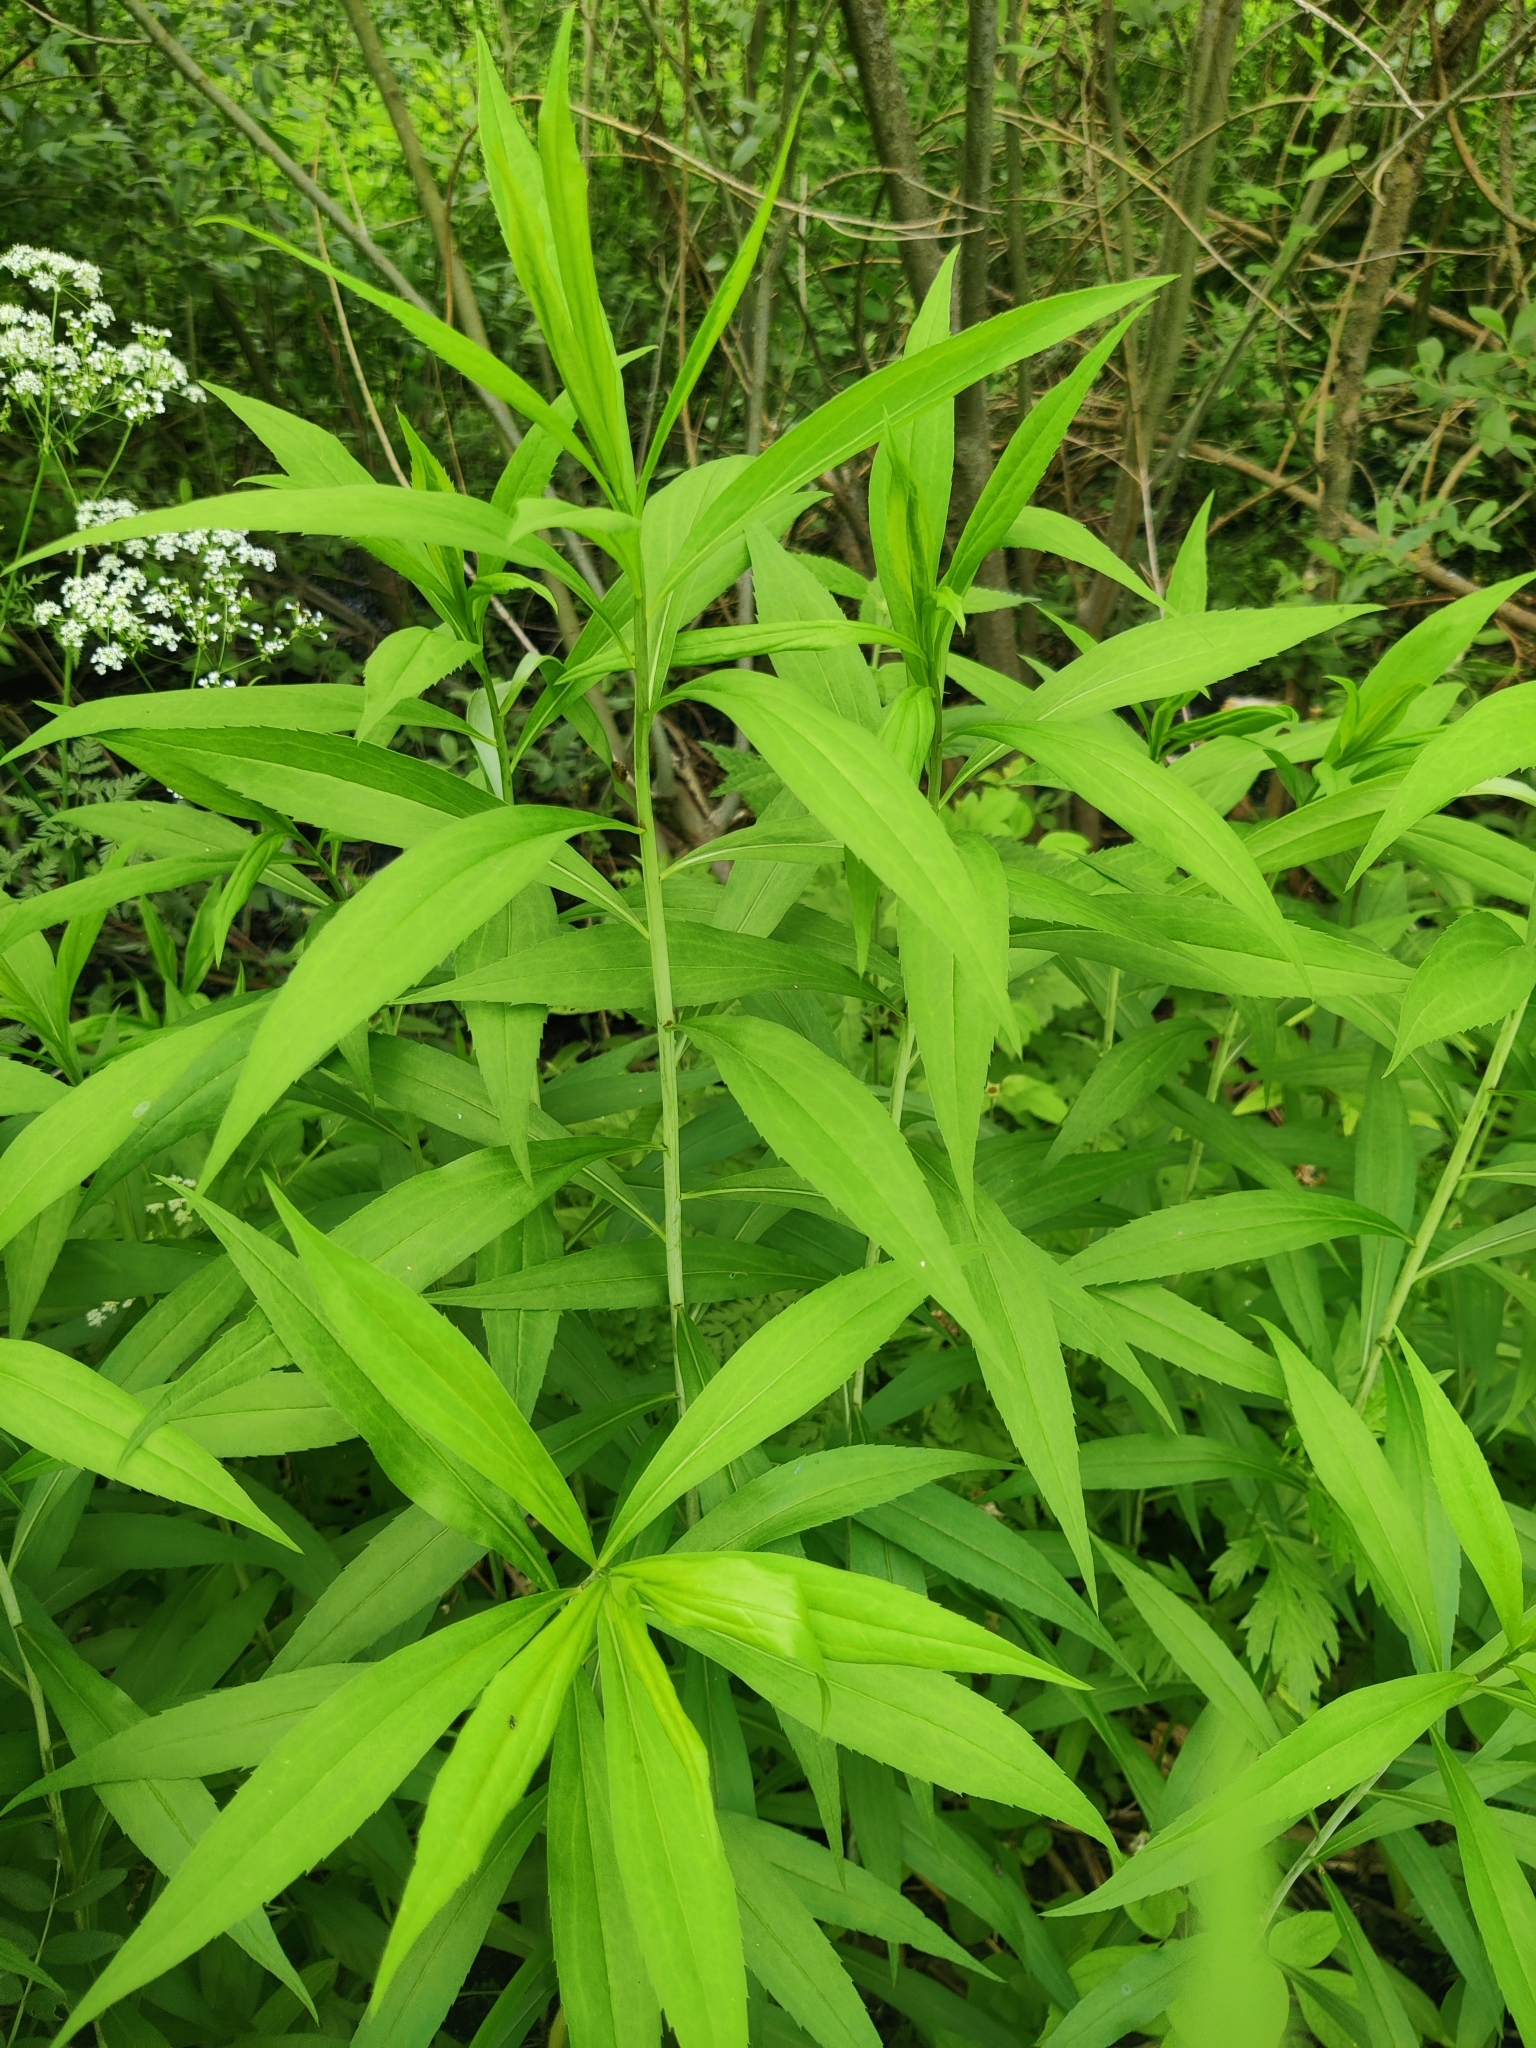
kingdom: Plantae
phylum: Tracheophyta
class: Magnoliopsida
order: Asterales
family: Asteraceae
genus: Solidago
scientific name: Solidago gigantea
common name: Giant goldenrod
